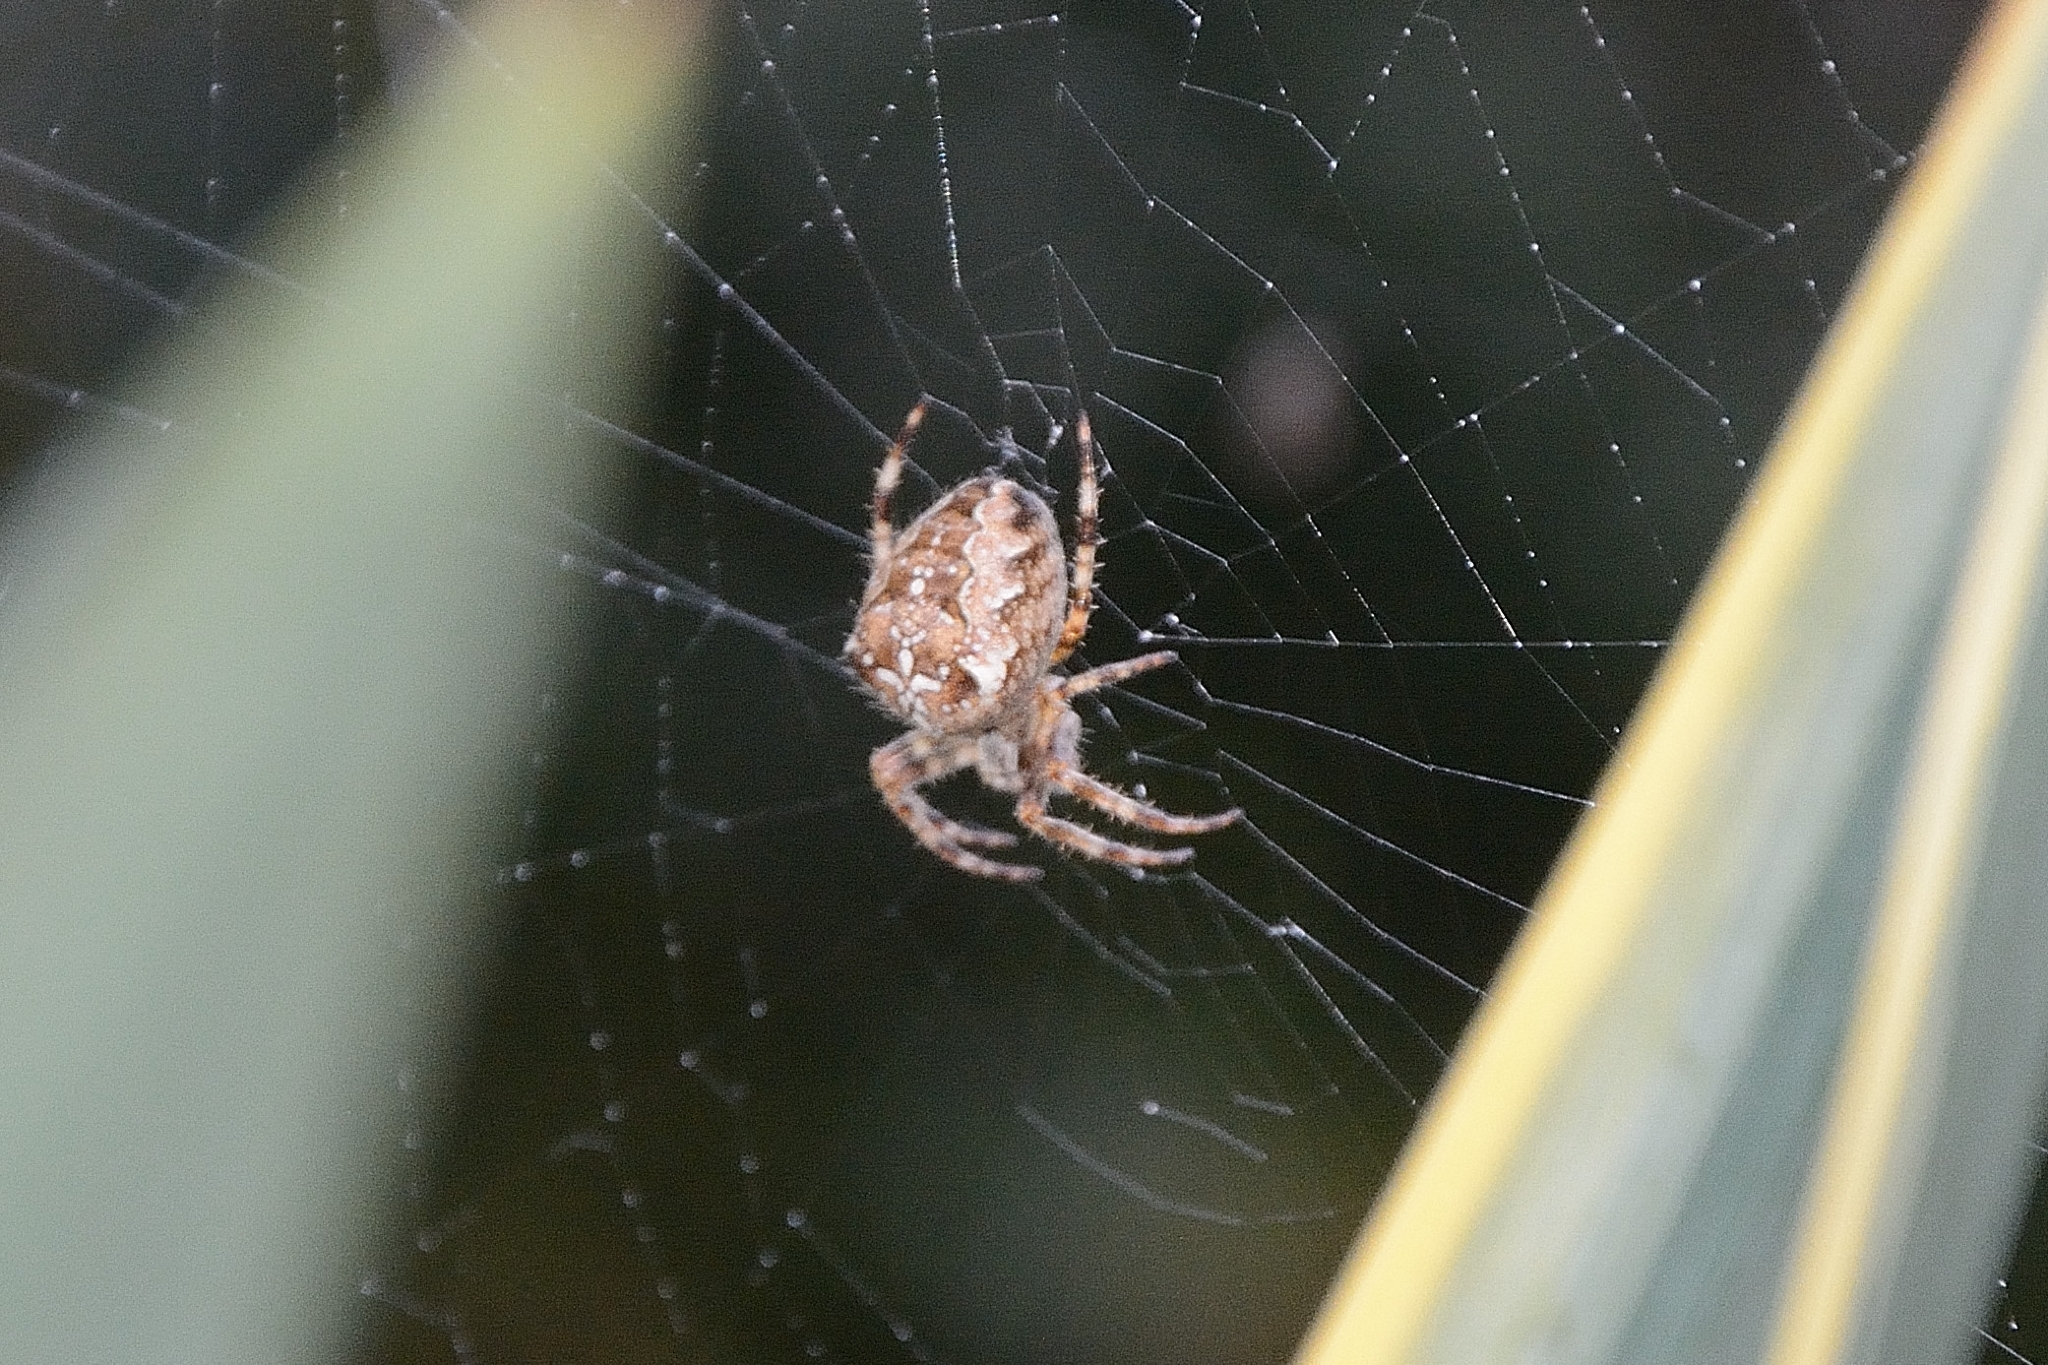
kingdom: Animalia
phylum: Arthropoda
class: Arachnida
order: Araneae
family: Araneidae
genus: Araneus
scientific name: Araneus diadematus
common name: Cross orbweaver
